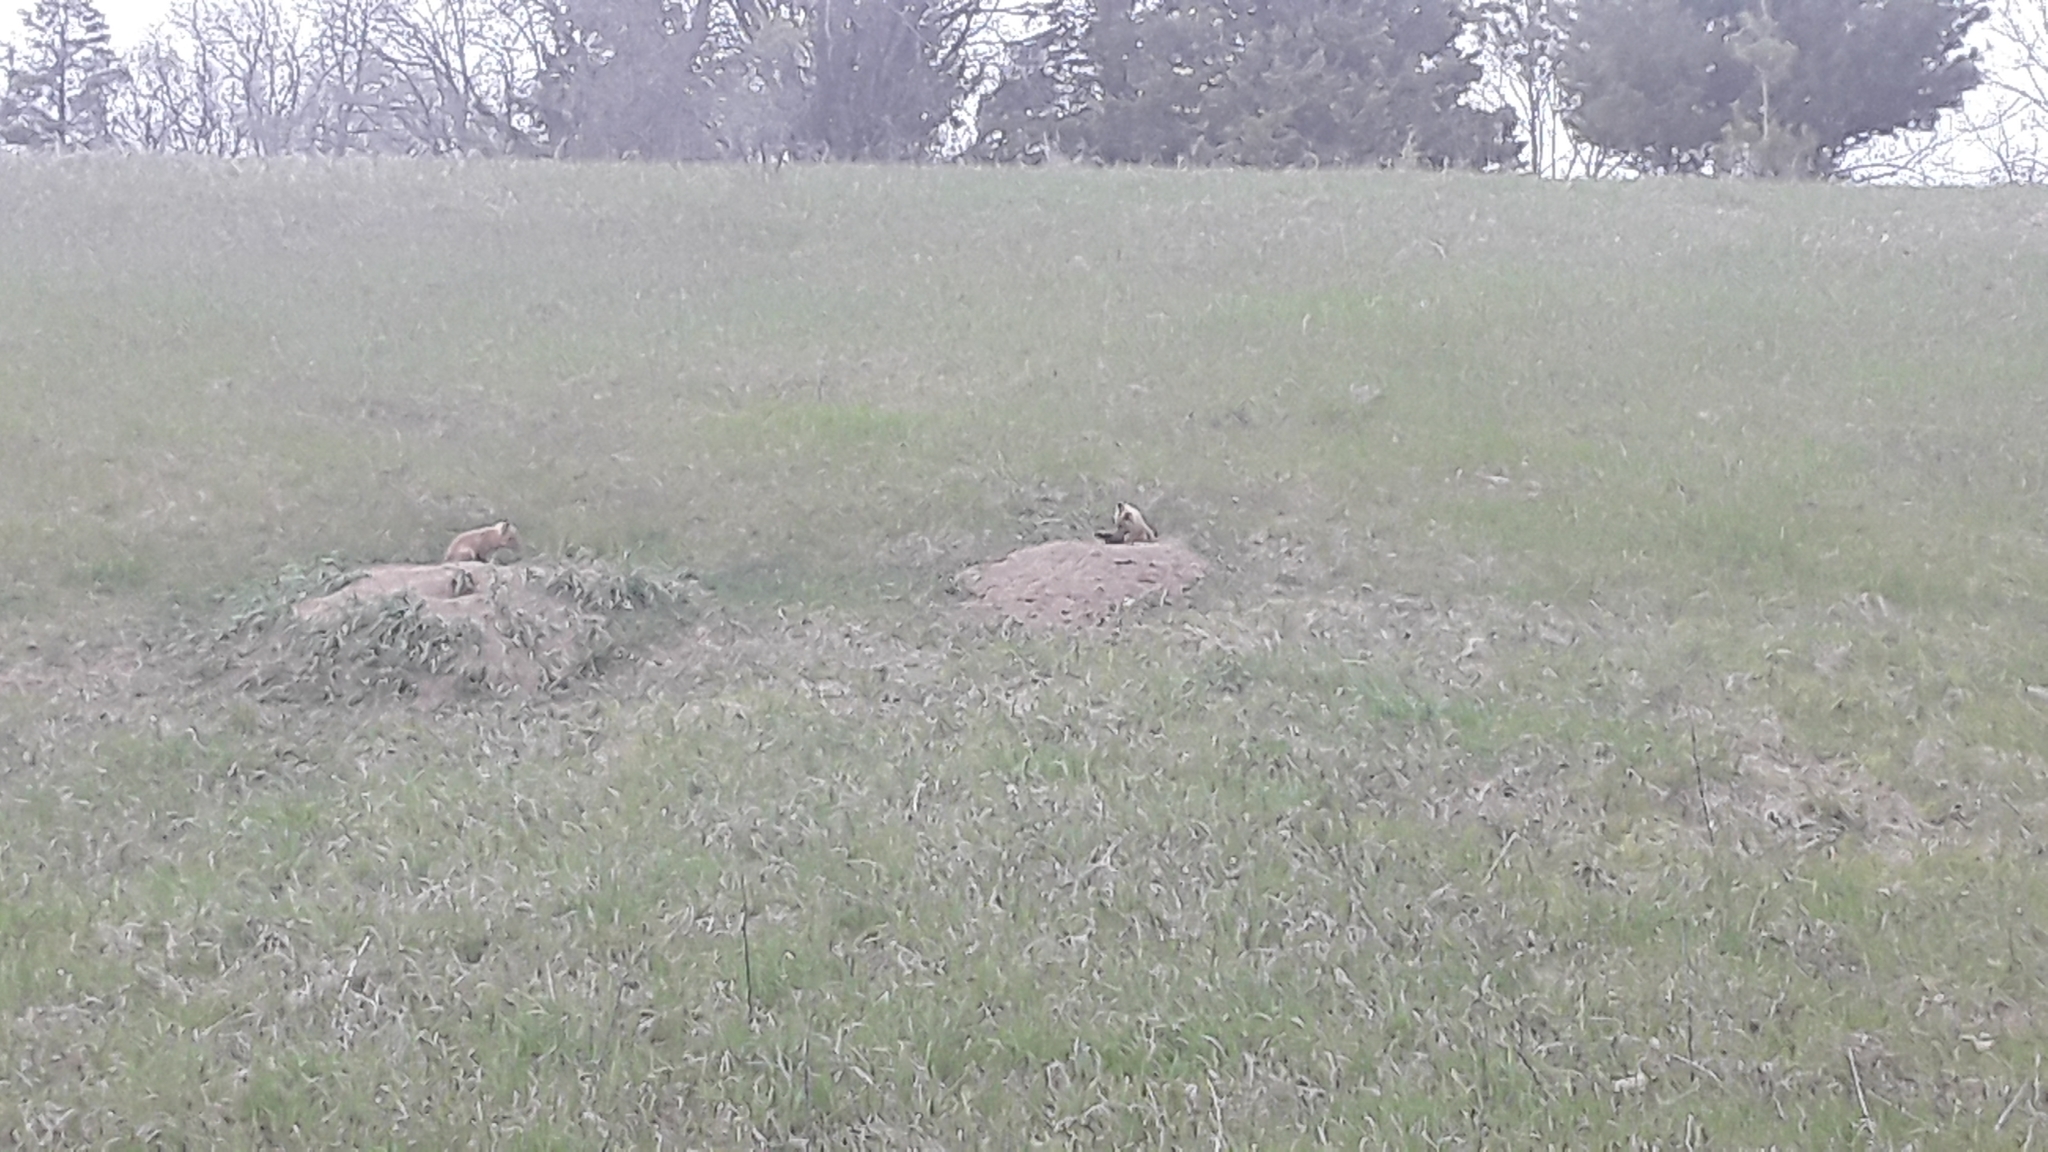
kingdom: Animalia
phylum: Chordata
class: Mammalia
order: Carnivora
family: Canidae
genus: Vulpes
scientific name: Vulpes vulpes
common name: Red fox
